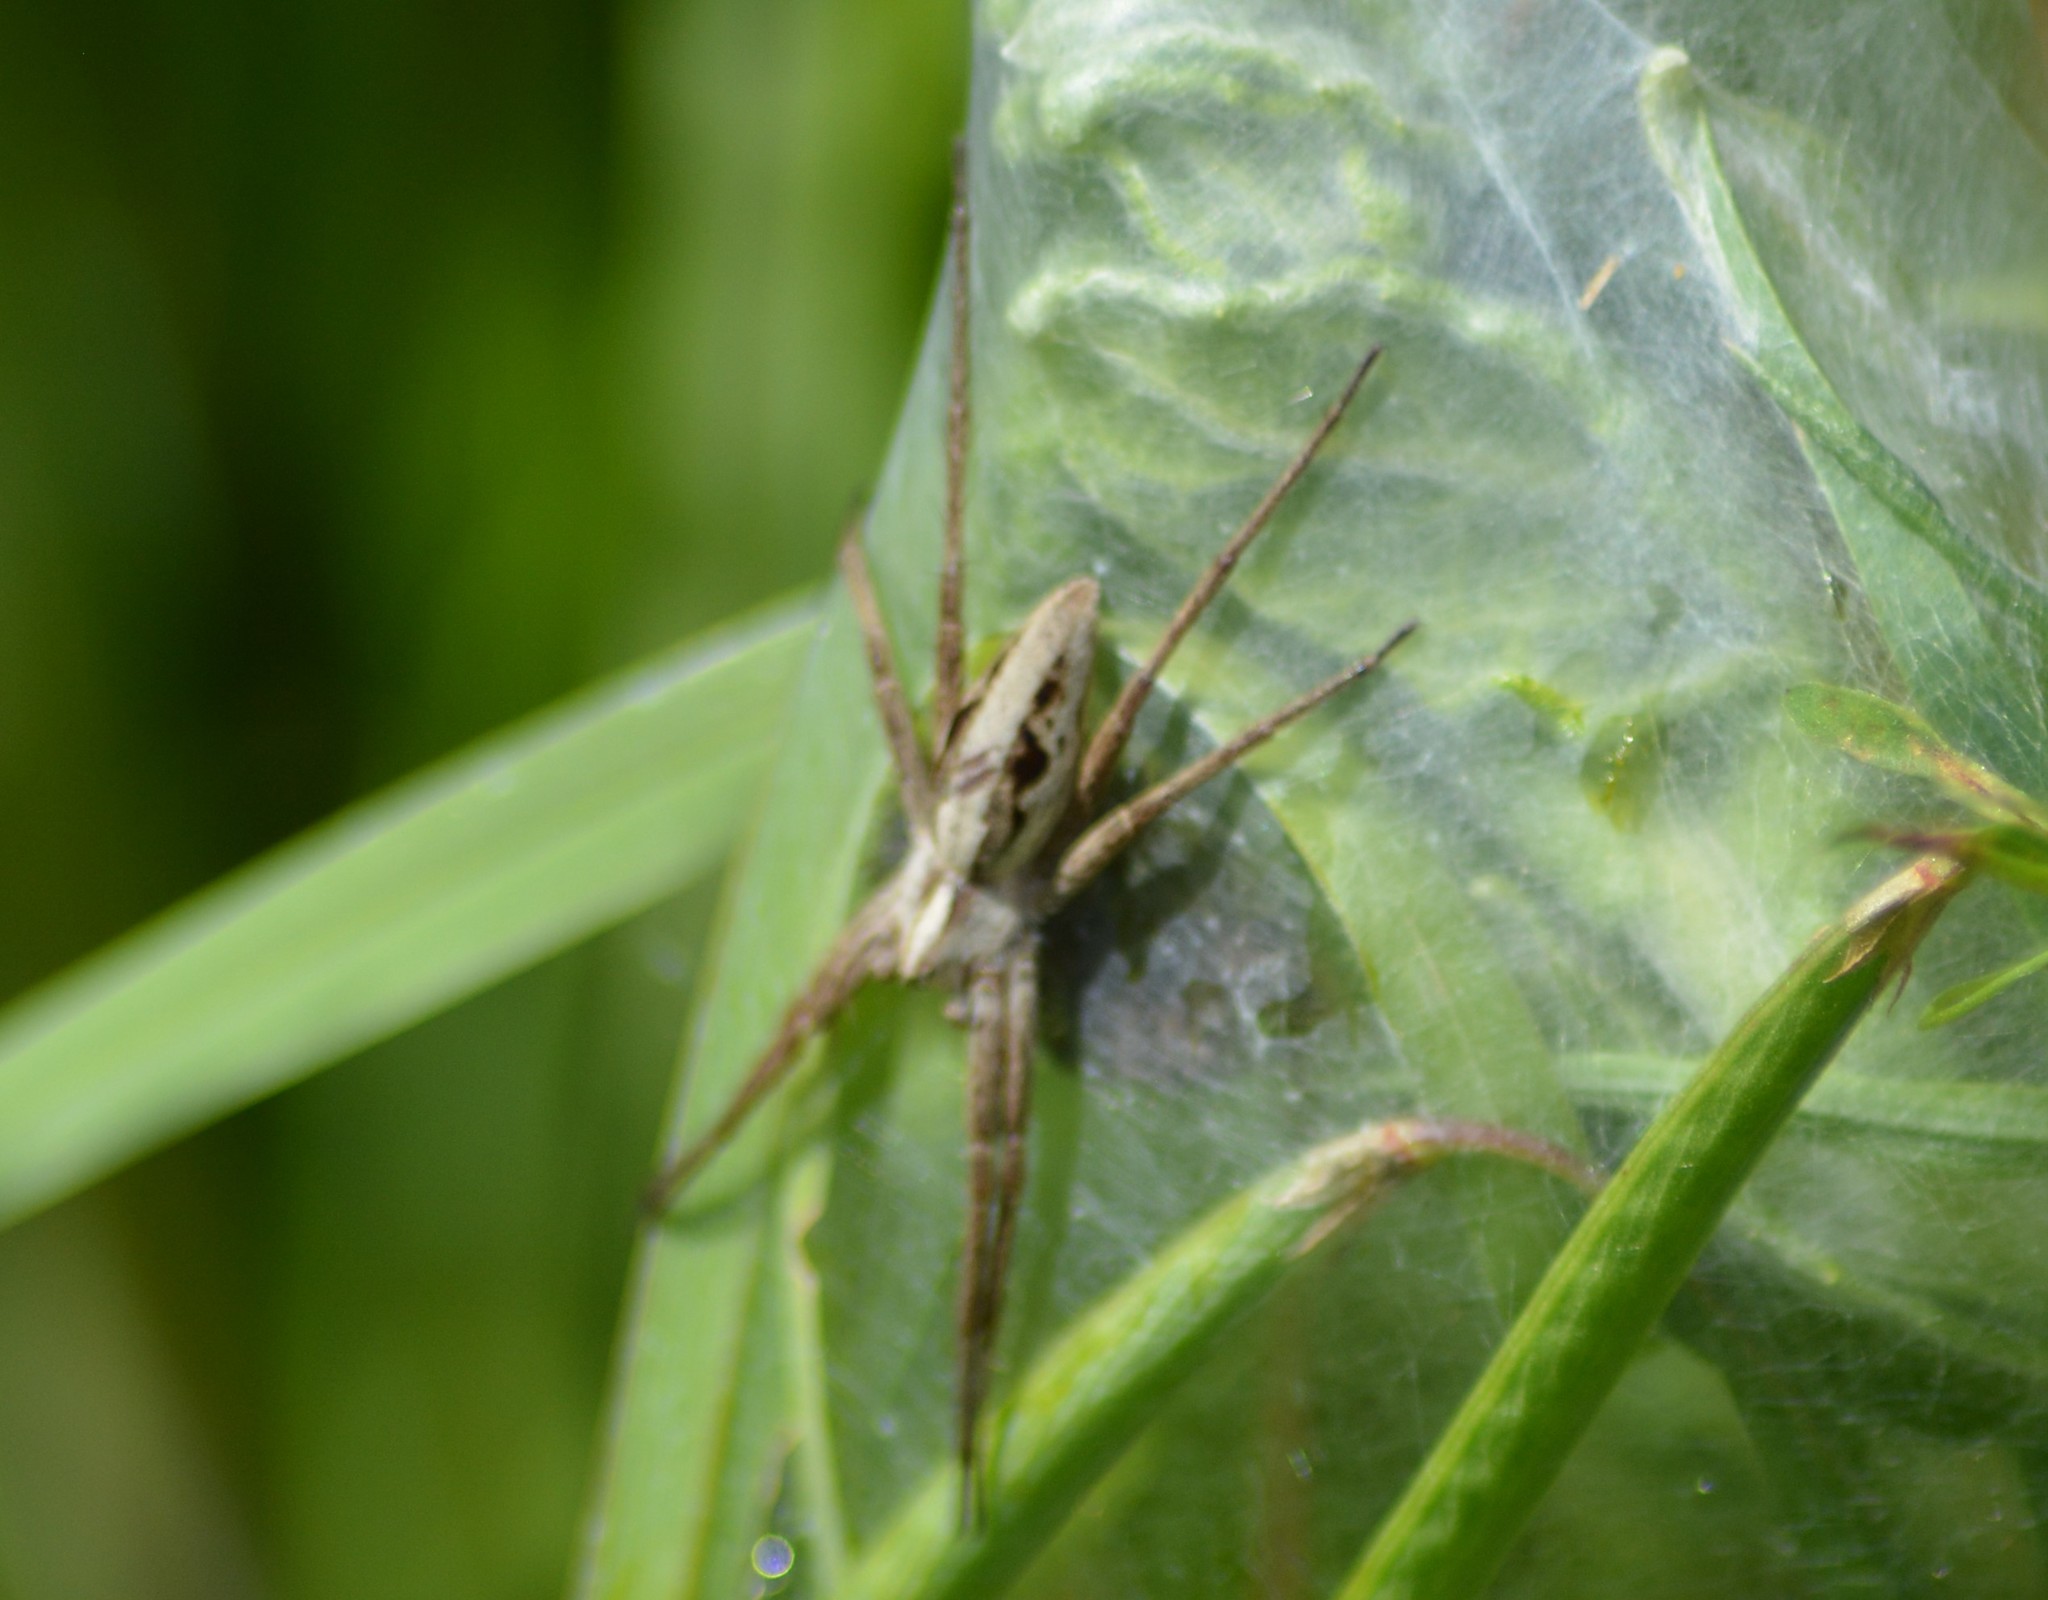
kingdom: Animalia
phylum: Arthropoda
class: Arachnida
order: Araneae
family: Pisauridae
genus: Pisaura
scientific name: Pisaura mirabilis
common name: Tent spider
